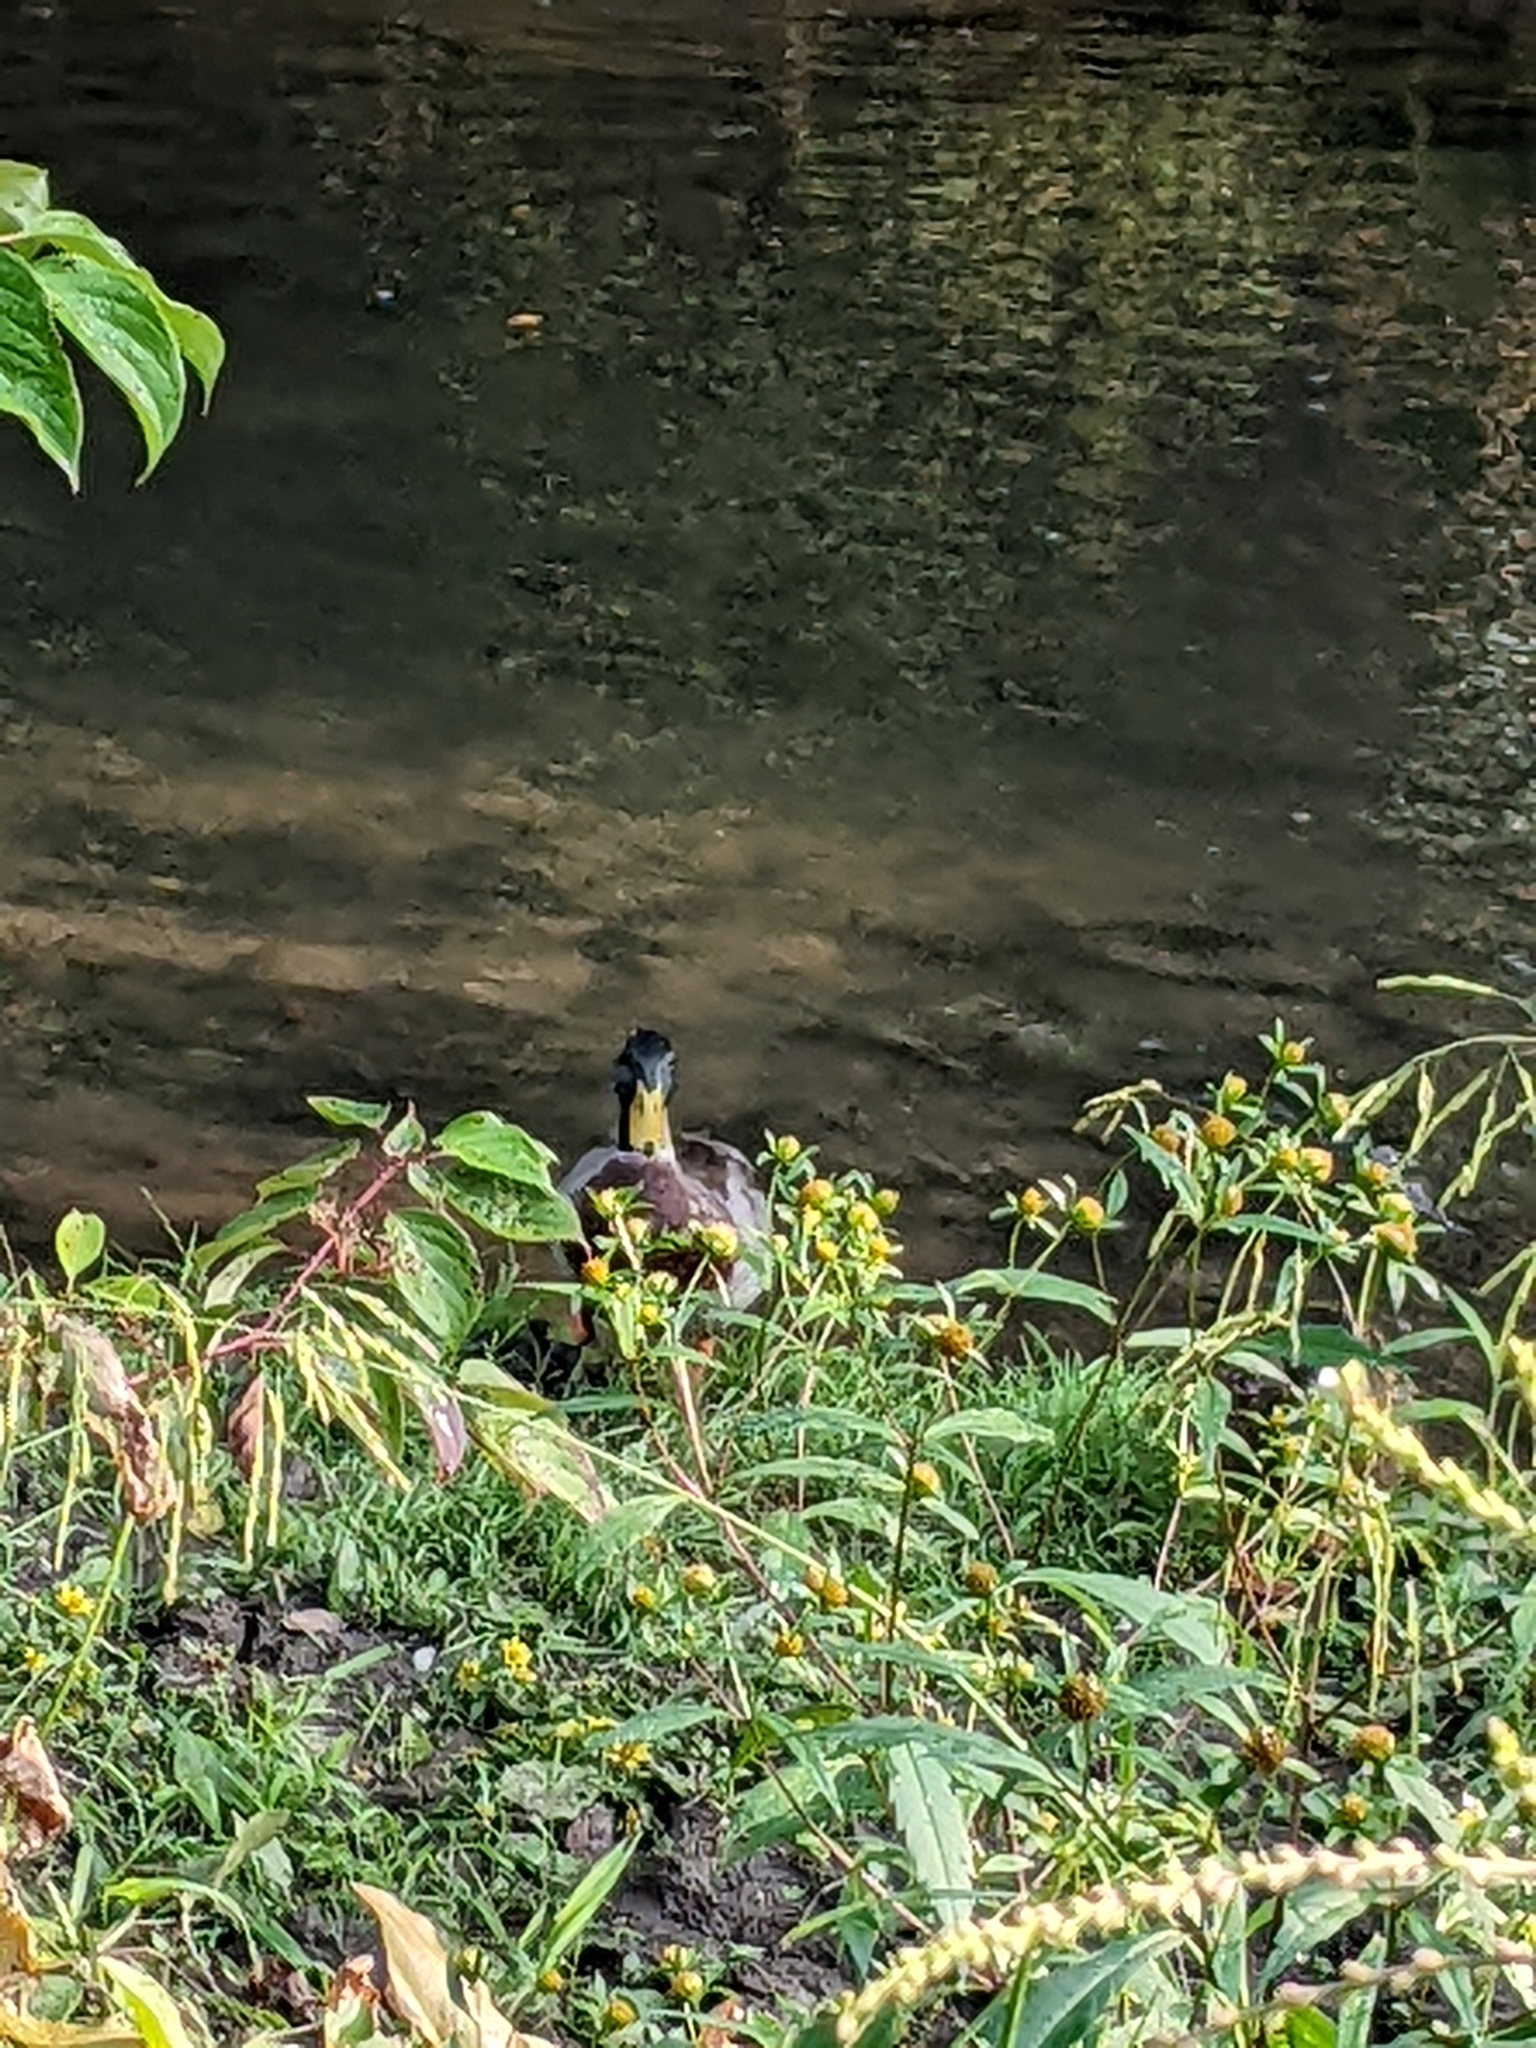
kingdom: Animalia
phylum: Chordata
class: Aves
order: Anseriformes
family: Anatidae
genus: Anas
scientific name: Anas platyrhynchos
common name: Mallard
